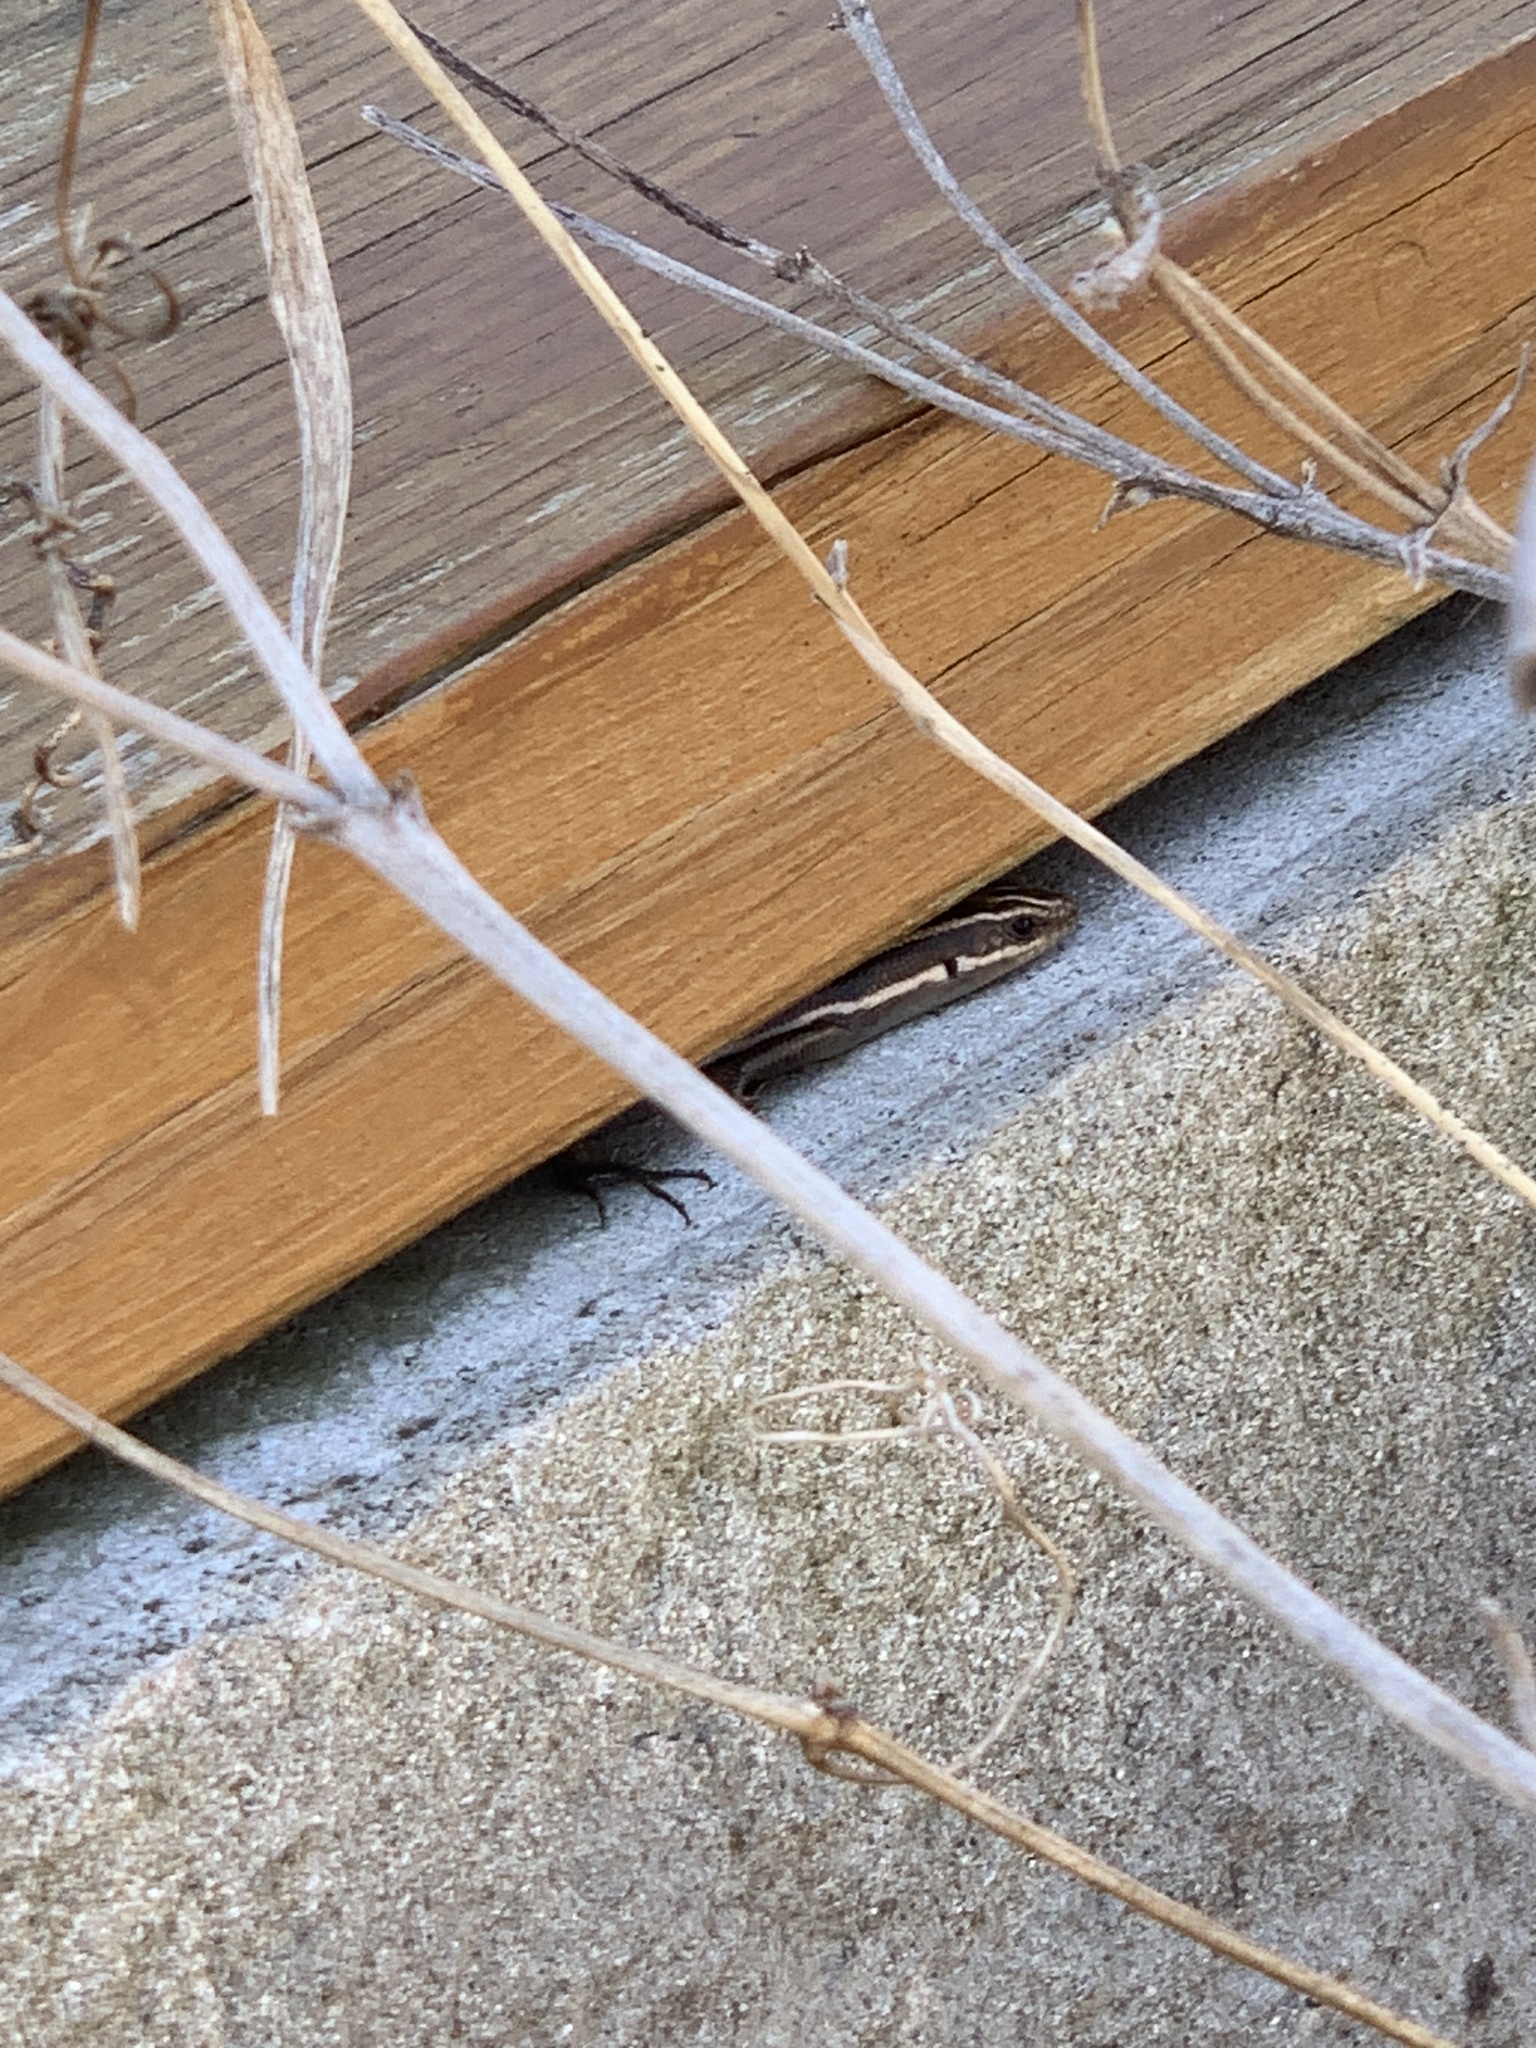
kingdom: Animalia
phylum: Chordata
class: Squamata
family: Scincidae
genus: Plestiodon
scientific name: Plestiodon fasciatus
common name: Five-lined skink
